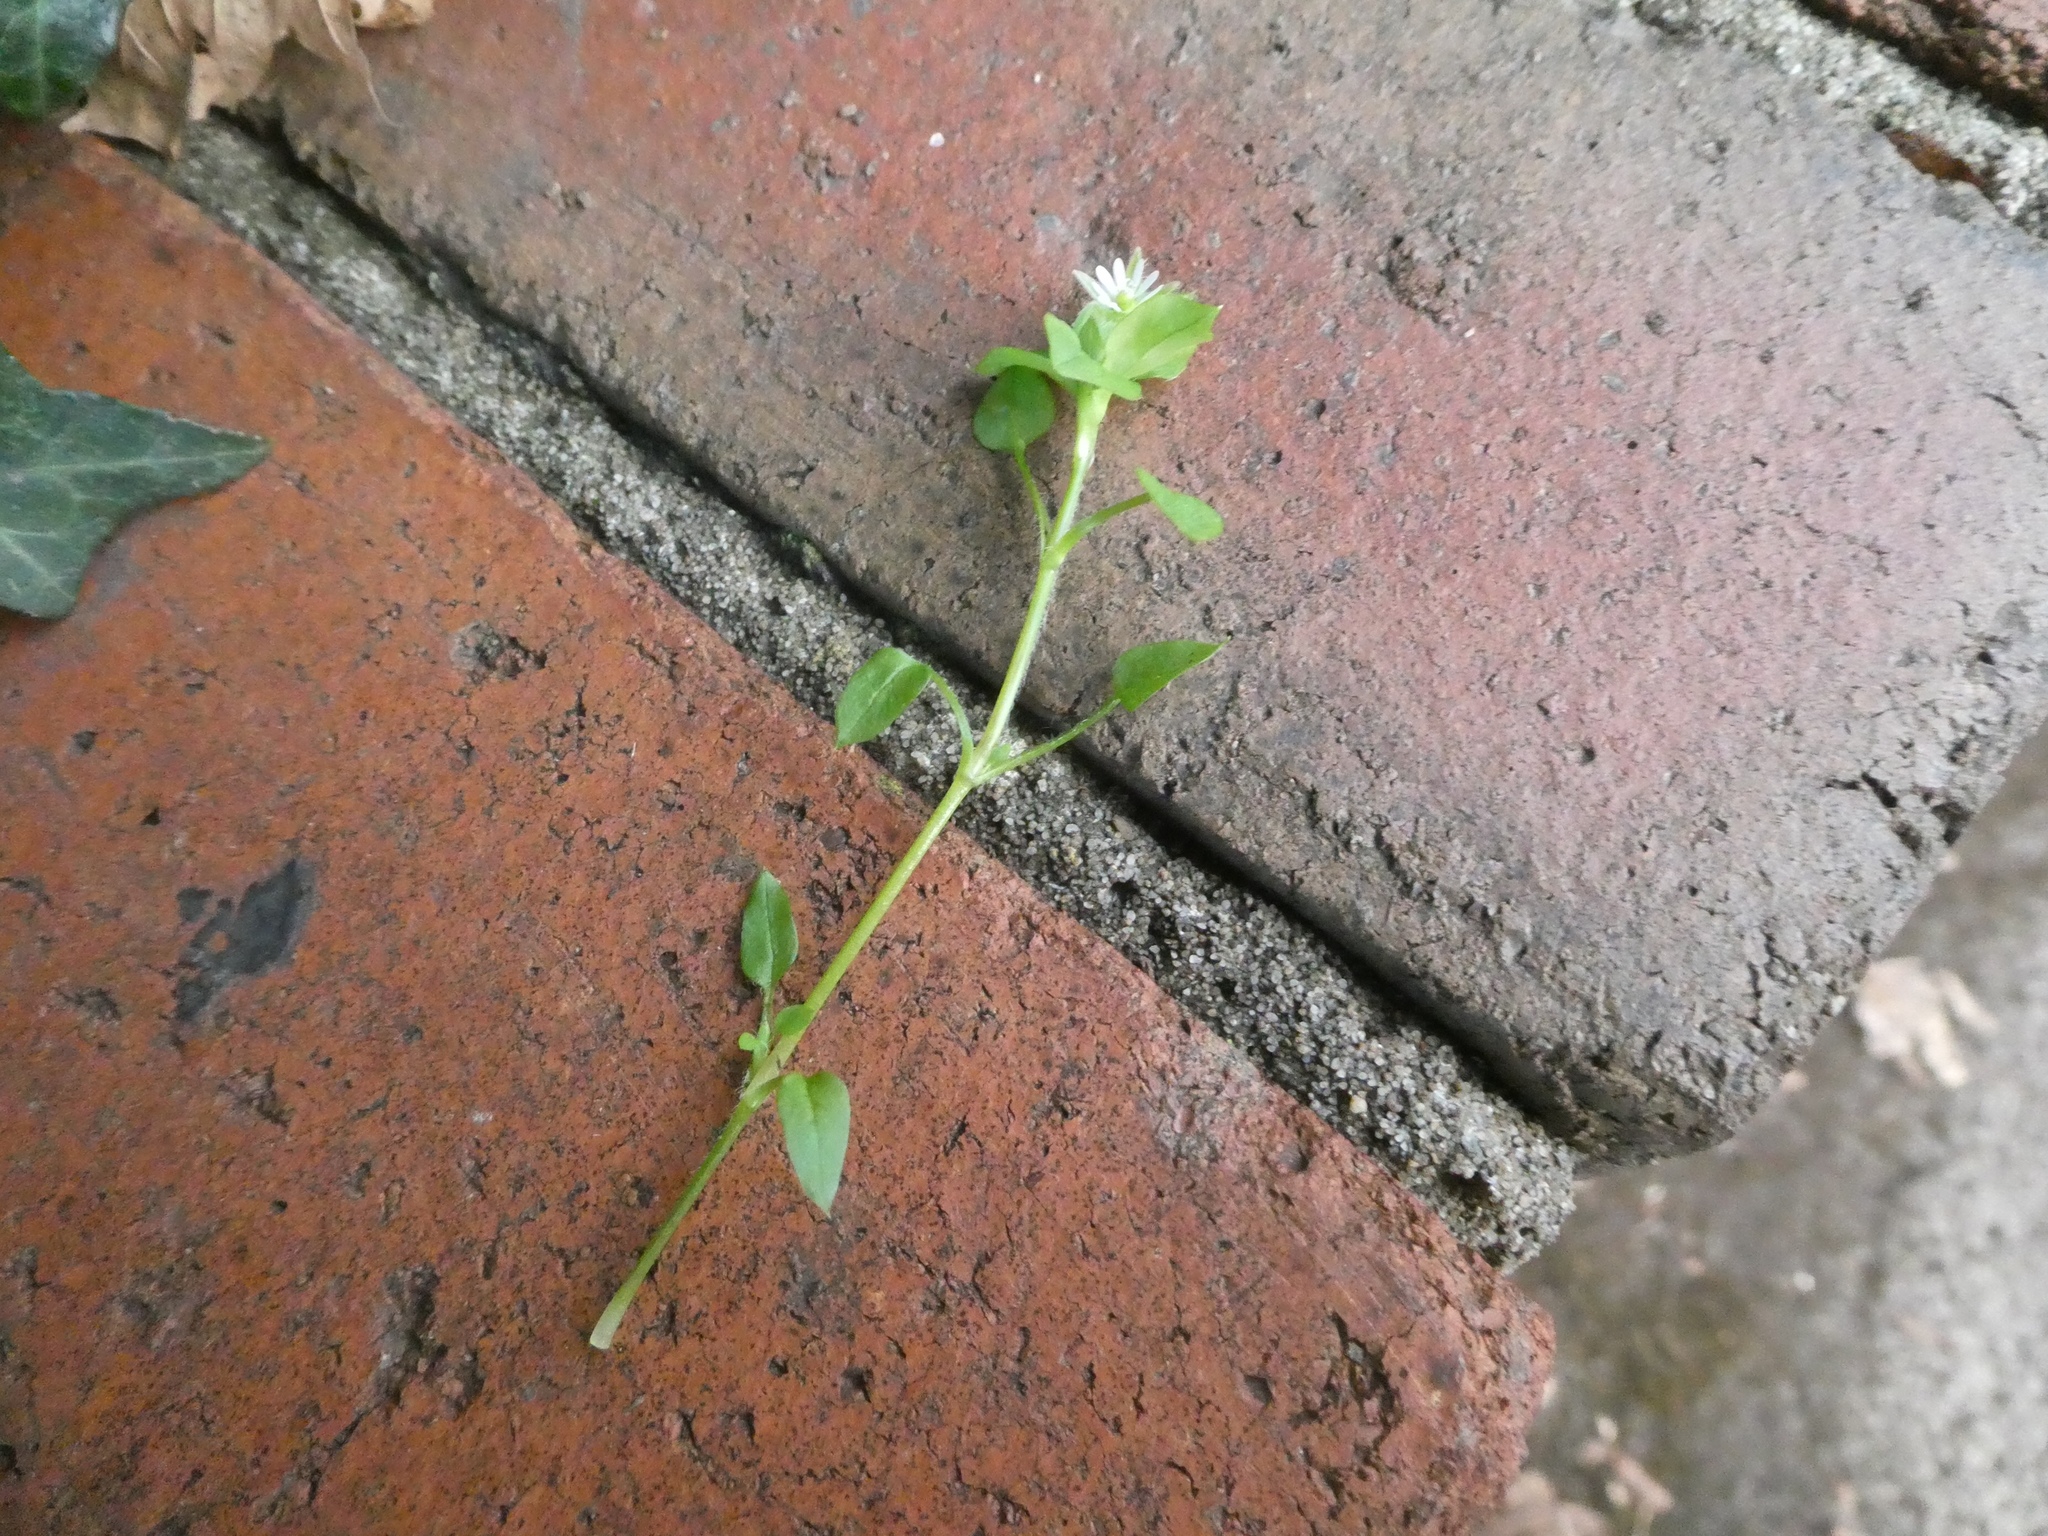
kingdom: Plantae
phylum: Tracheophyta
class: Magnoliopsida
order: Caryophyllales
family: Caryophyllaceae
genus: Stellaria
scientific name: Stellaria media
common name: Common chickweed
